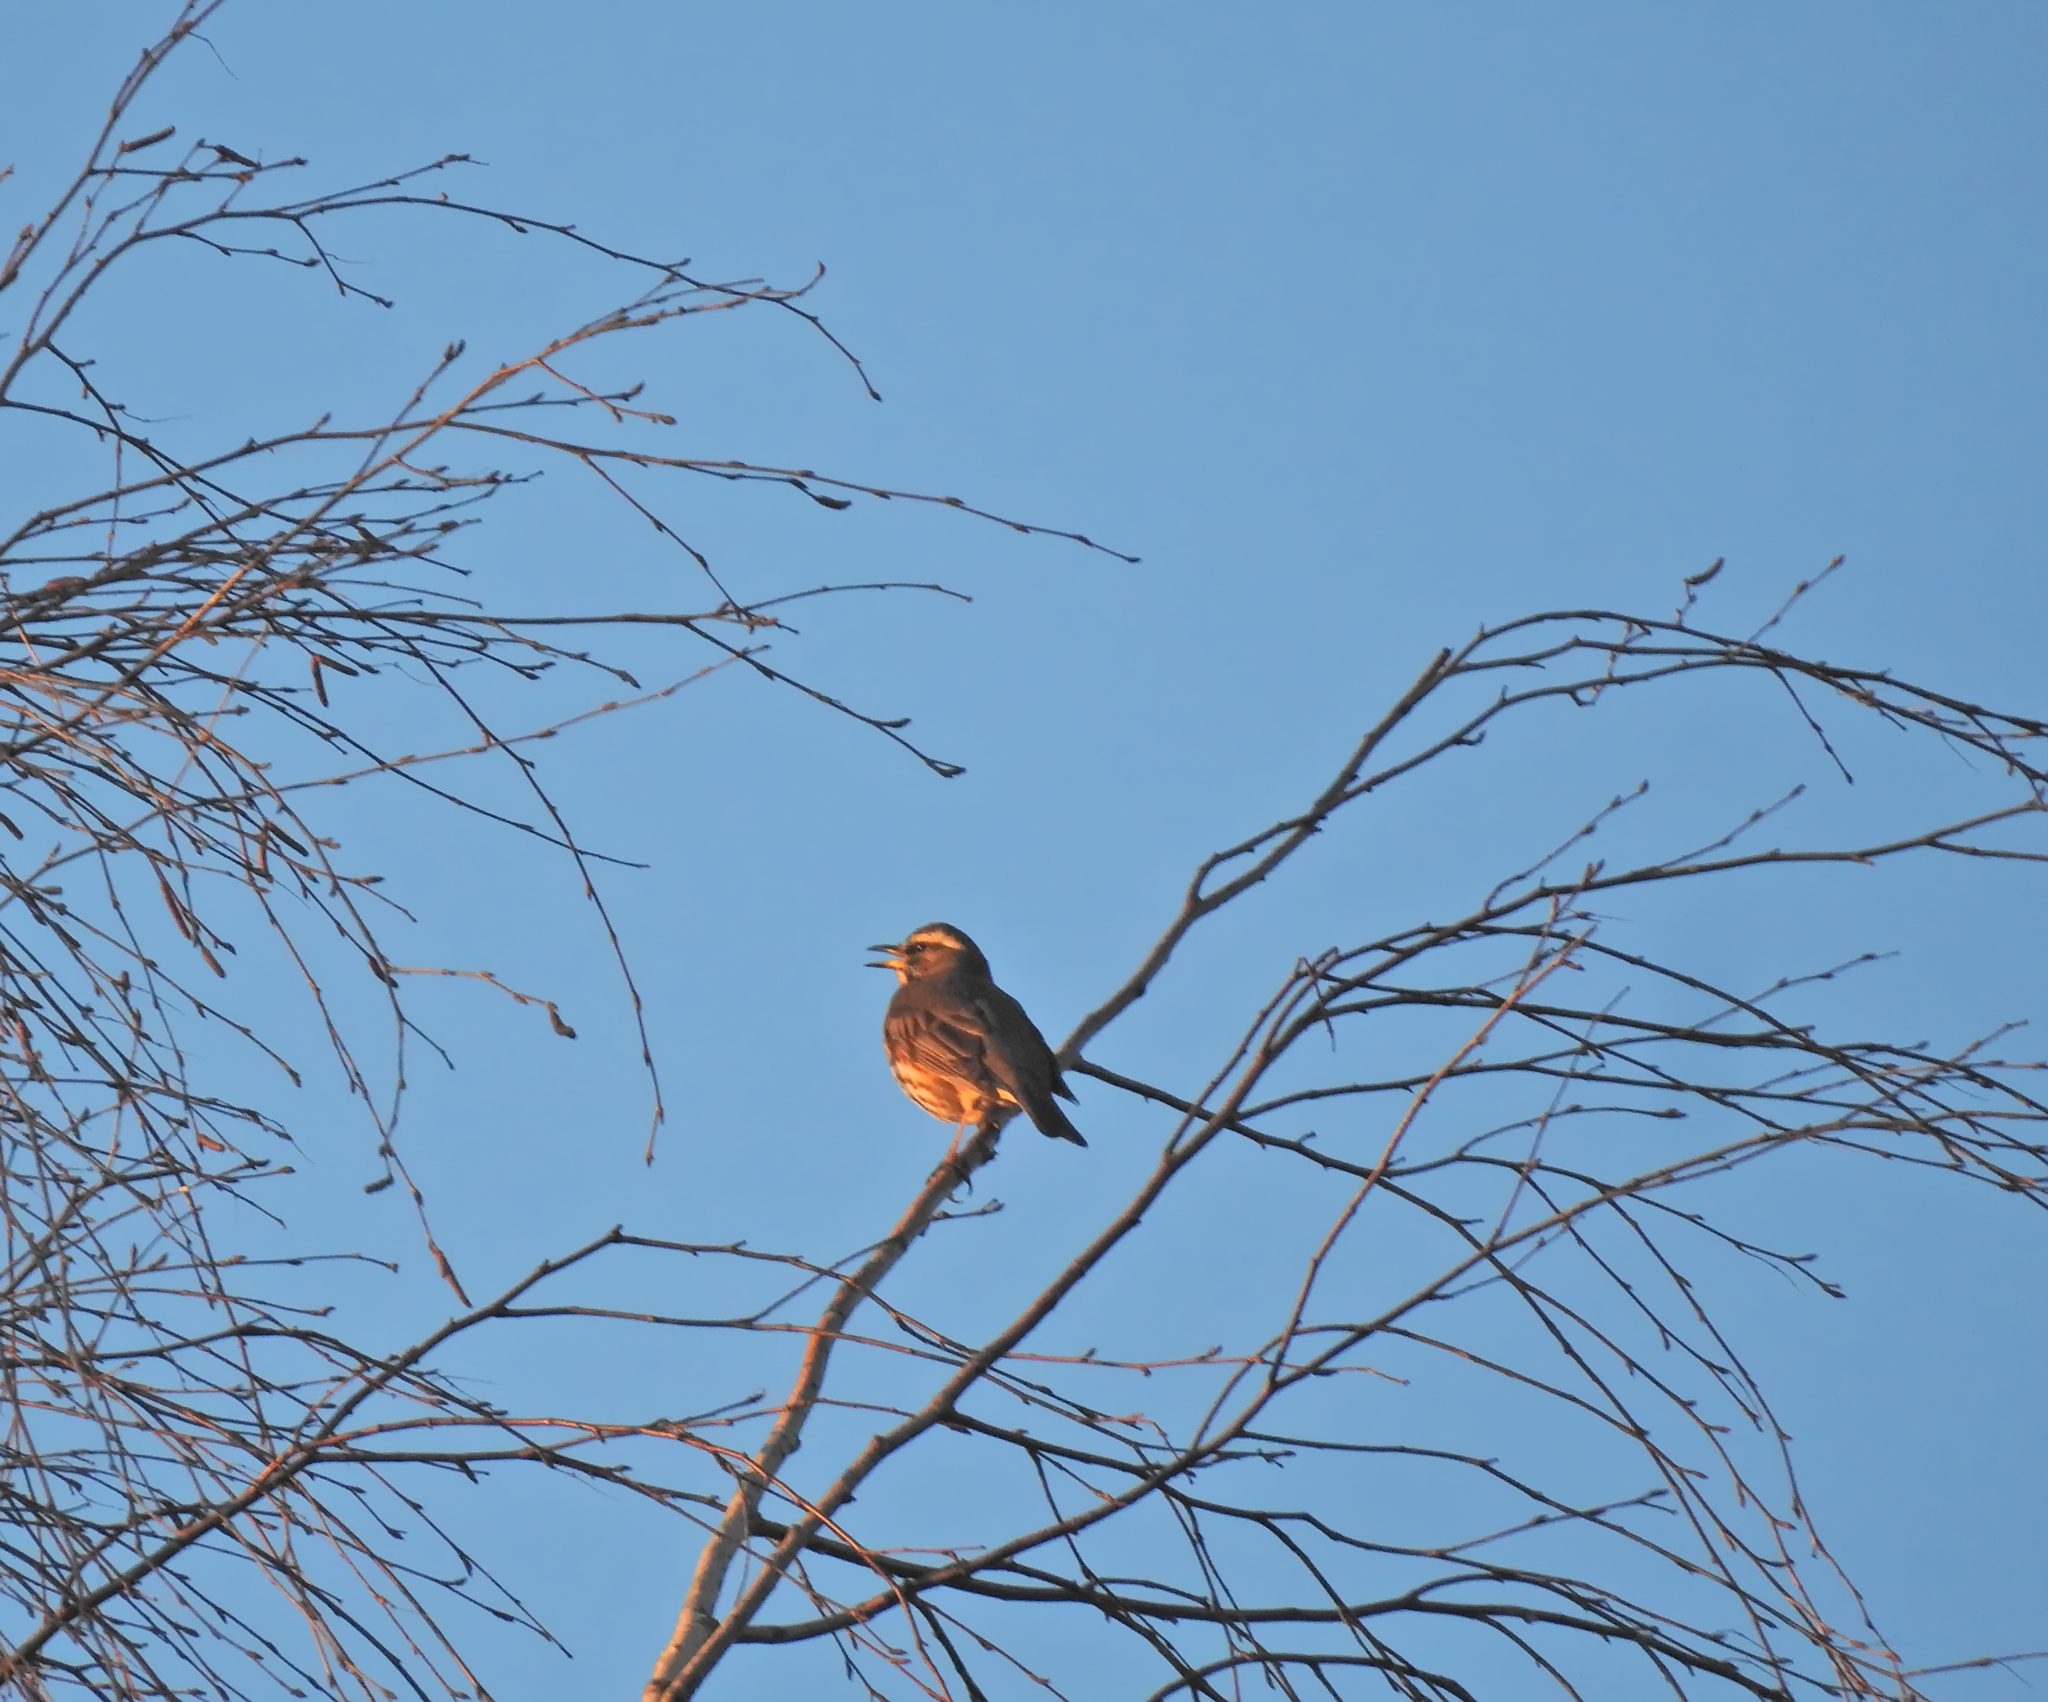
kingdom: Animalia
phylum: Chordata
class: Aves
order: Passeriformes
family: Turdidae
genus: Turdus
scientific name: Turdus iliacus
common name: Redwing
